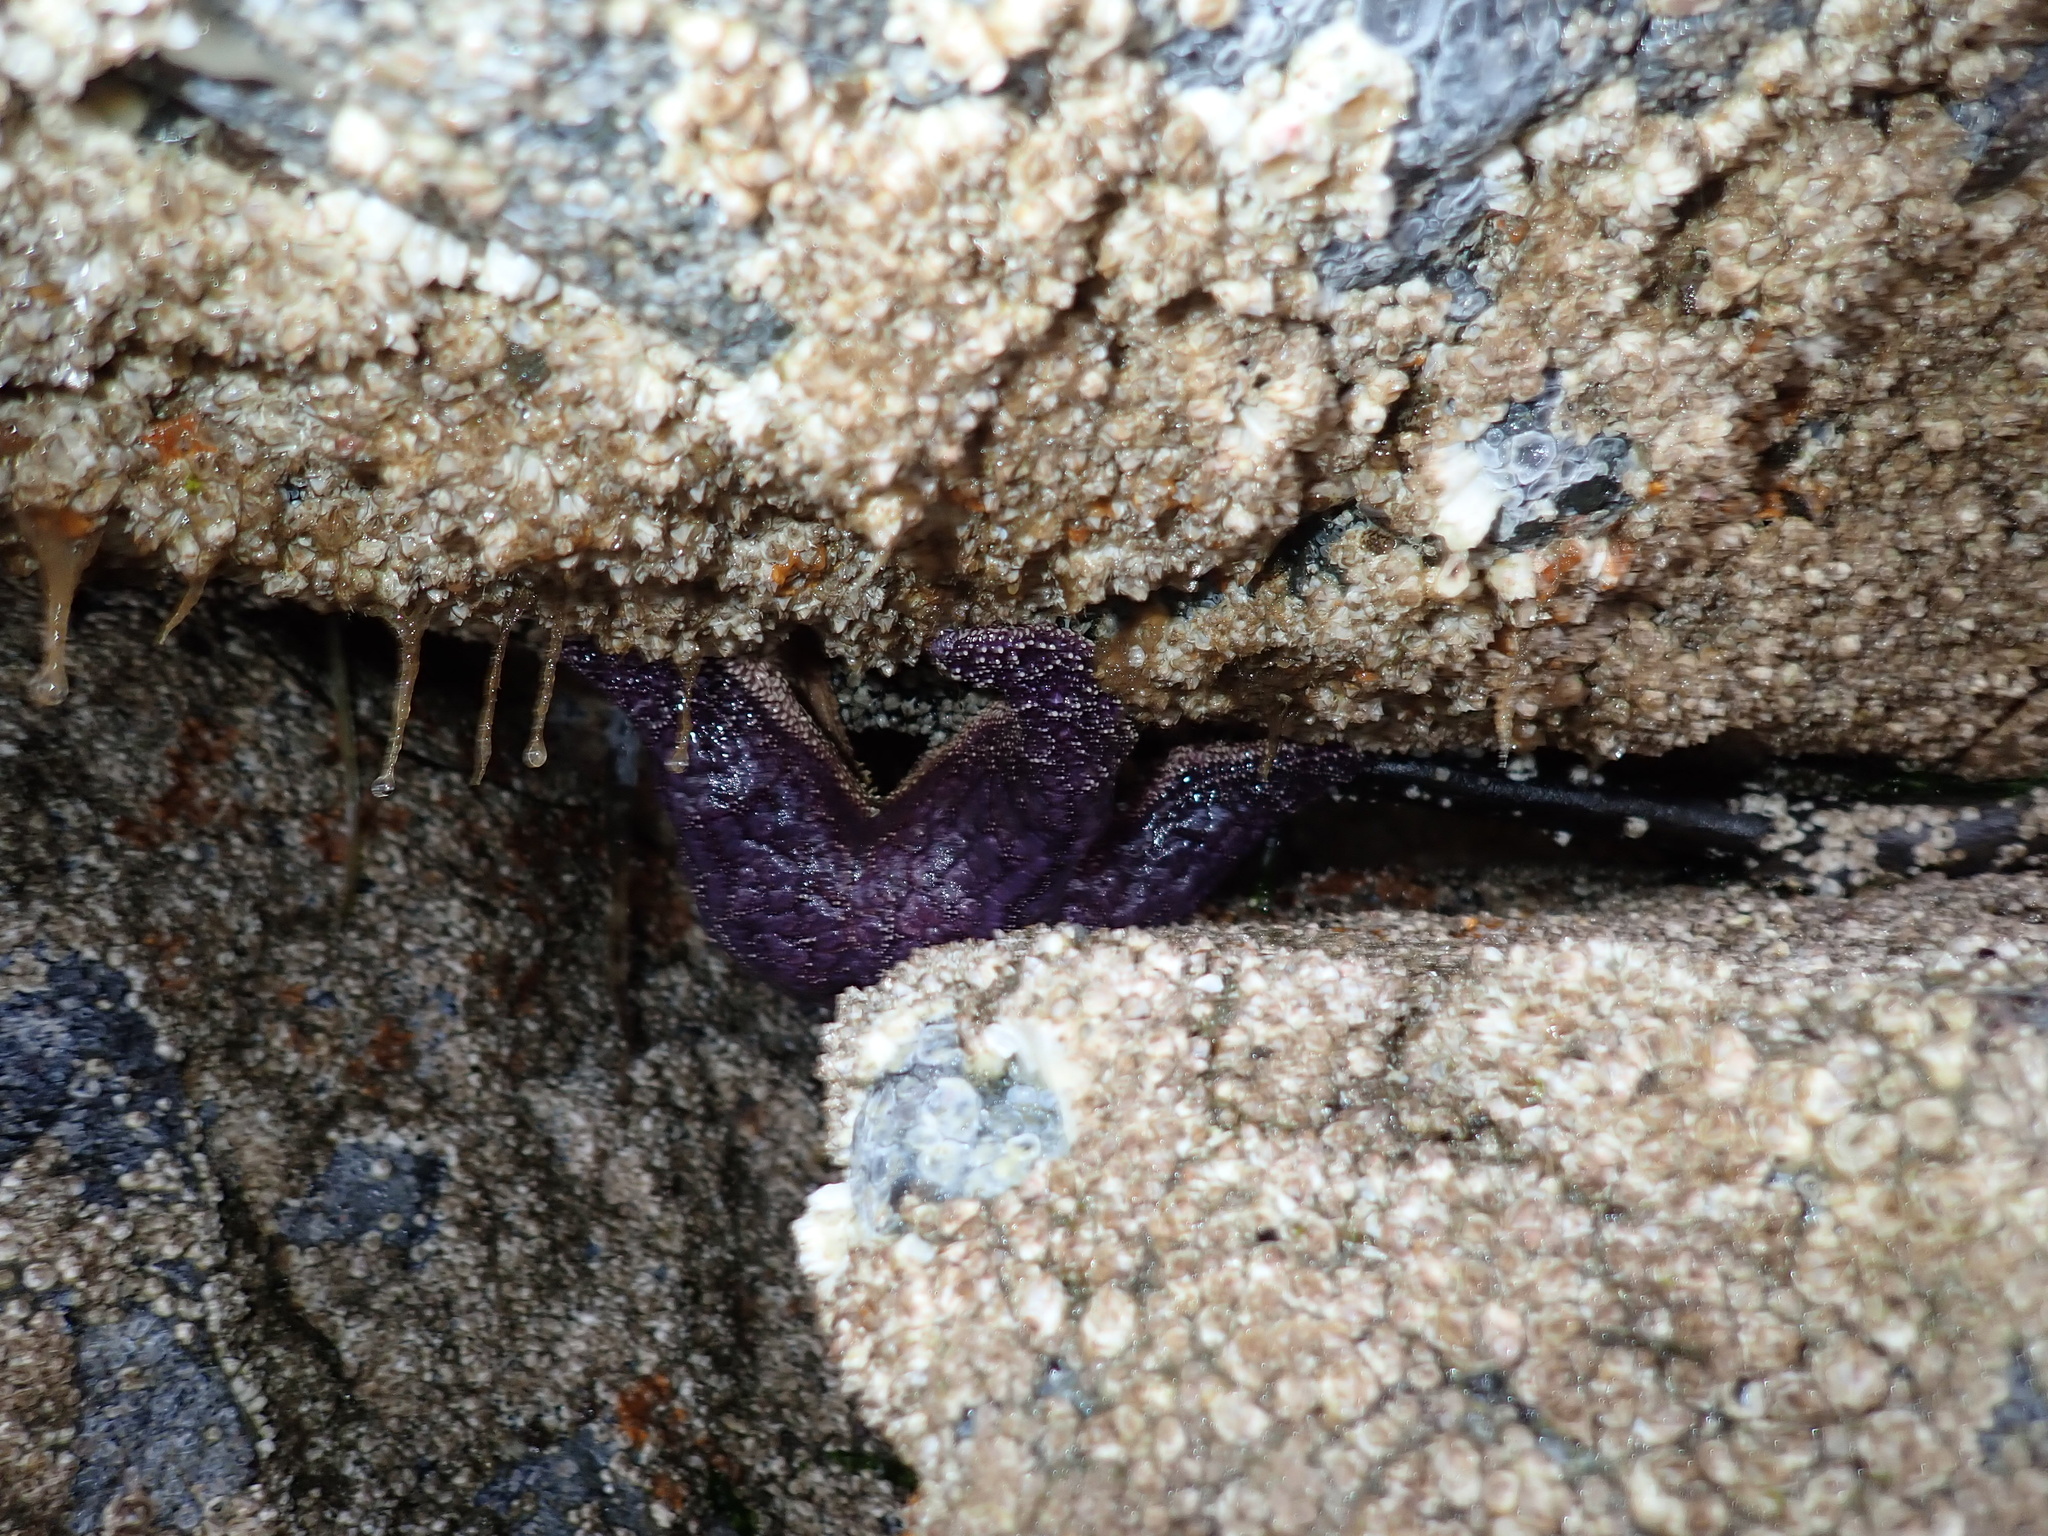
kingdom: Animalia
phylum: Echinodermata
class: Asteroidea
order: Forcipulatida
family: Asteriidae
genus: Pisaster
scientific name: Pisaster ochraceus
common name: Ochre stars
